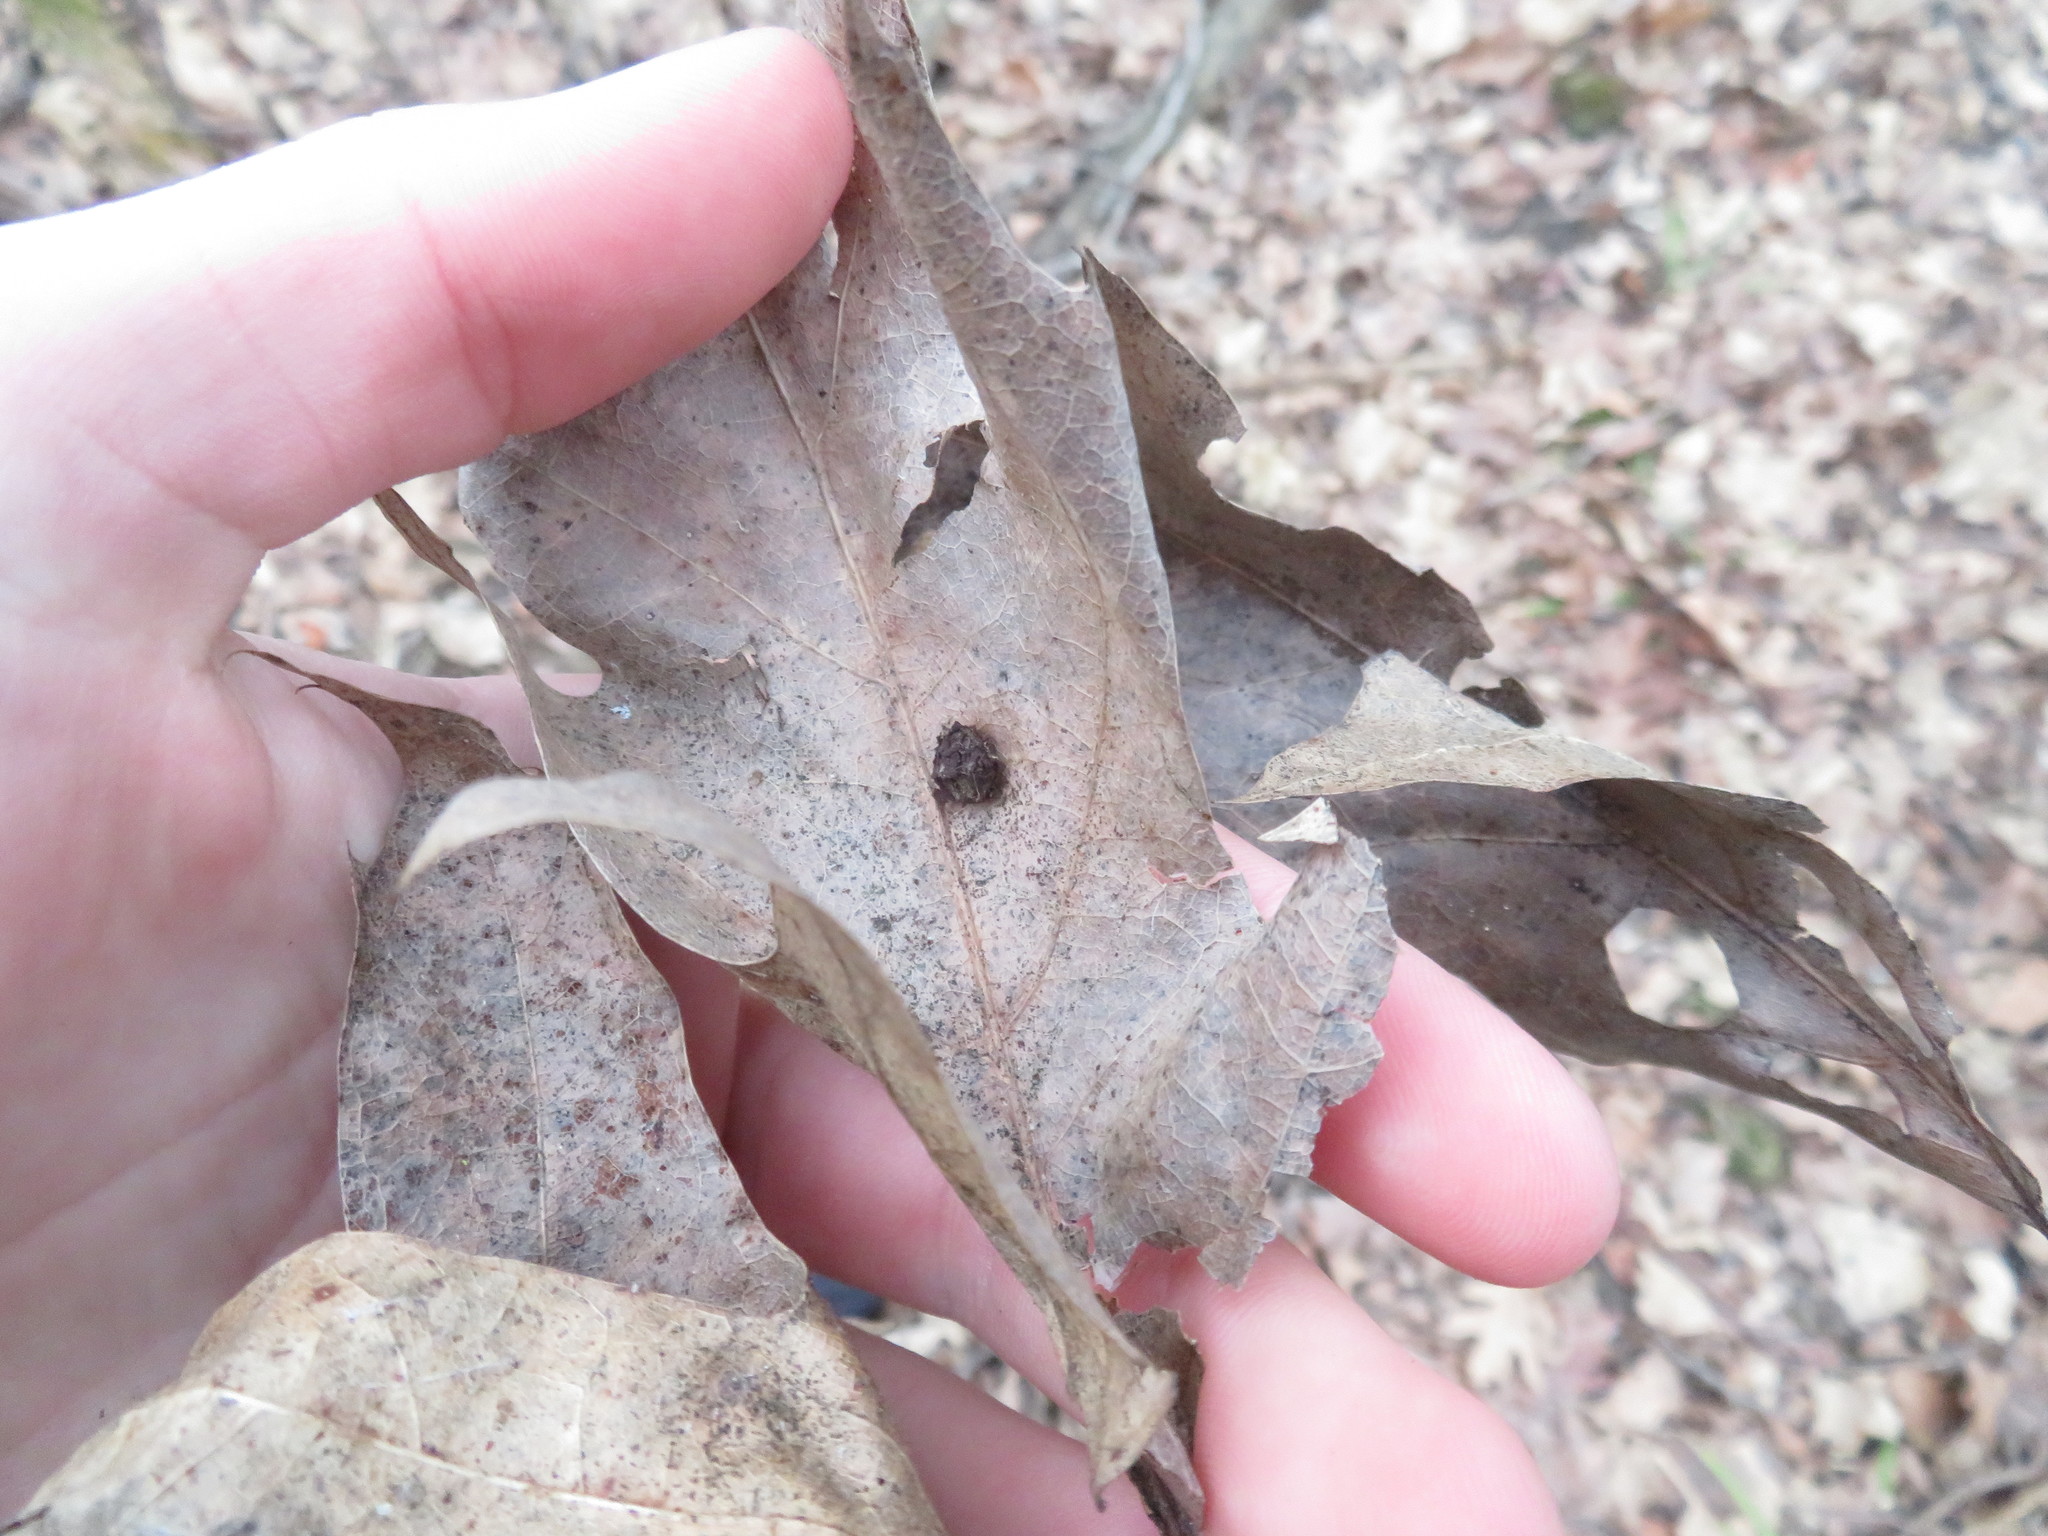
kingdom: Animalia
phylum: Arthropoda
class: Insecta
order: Diptera
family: Cecidomyiidae
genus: Polystepha
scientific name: Polystepha globosa
